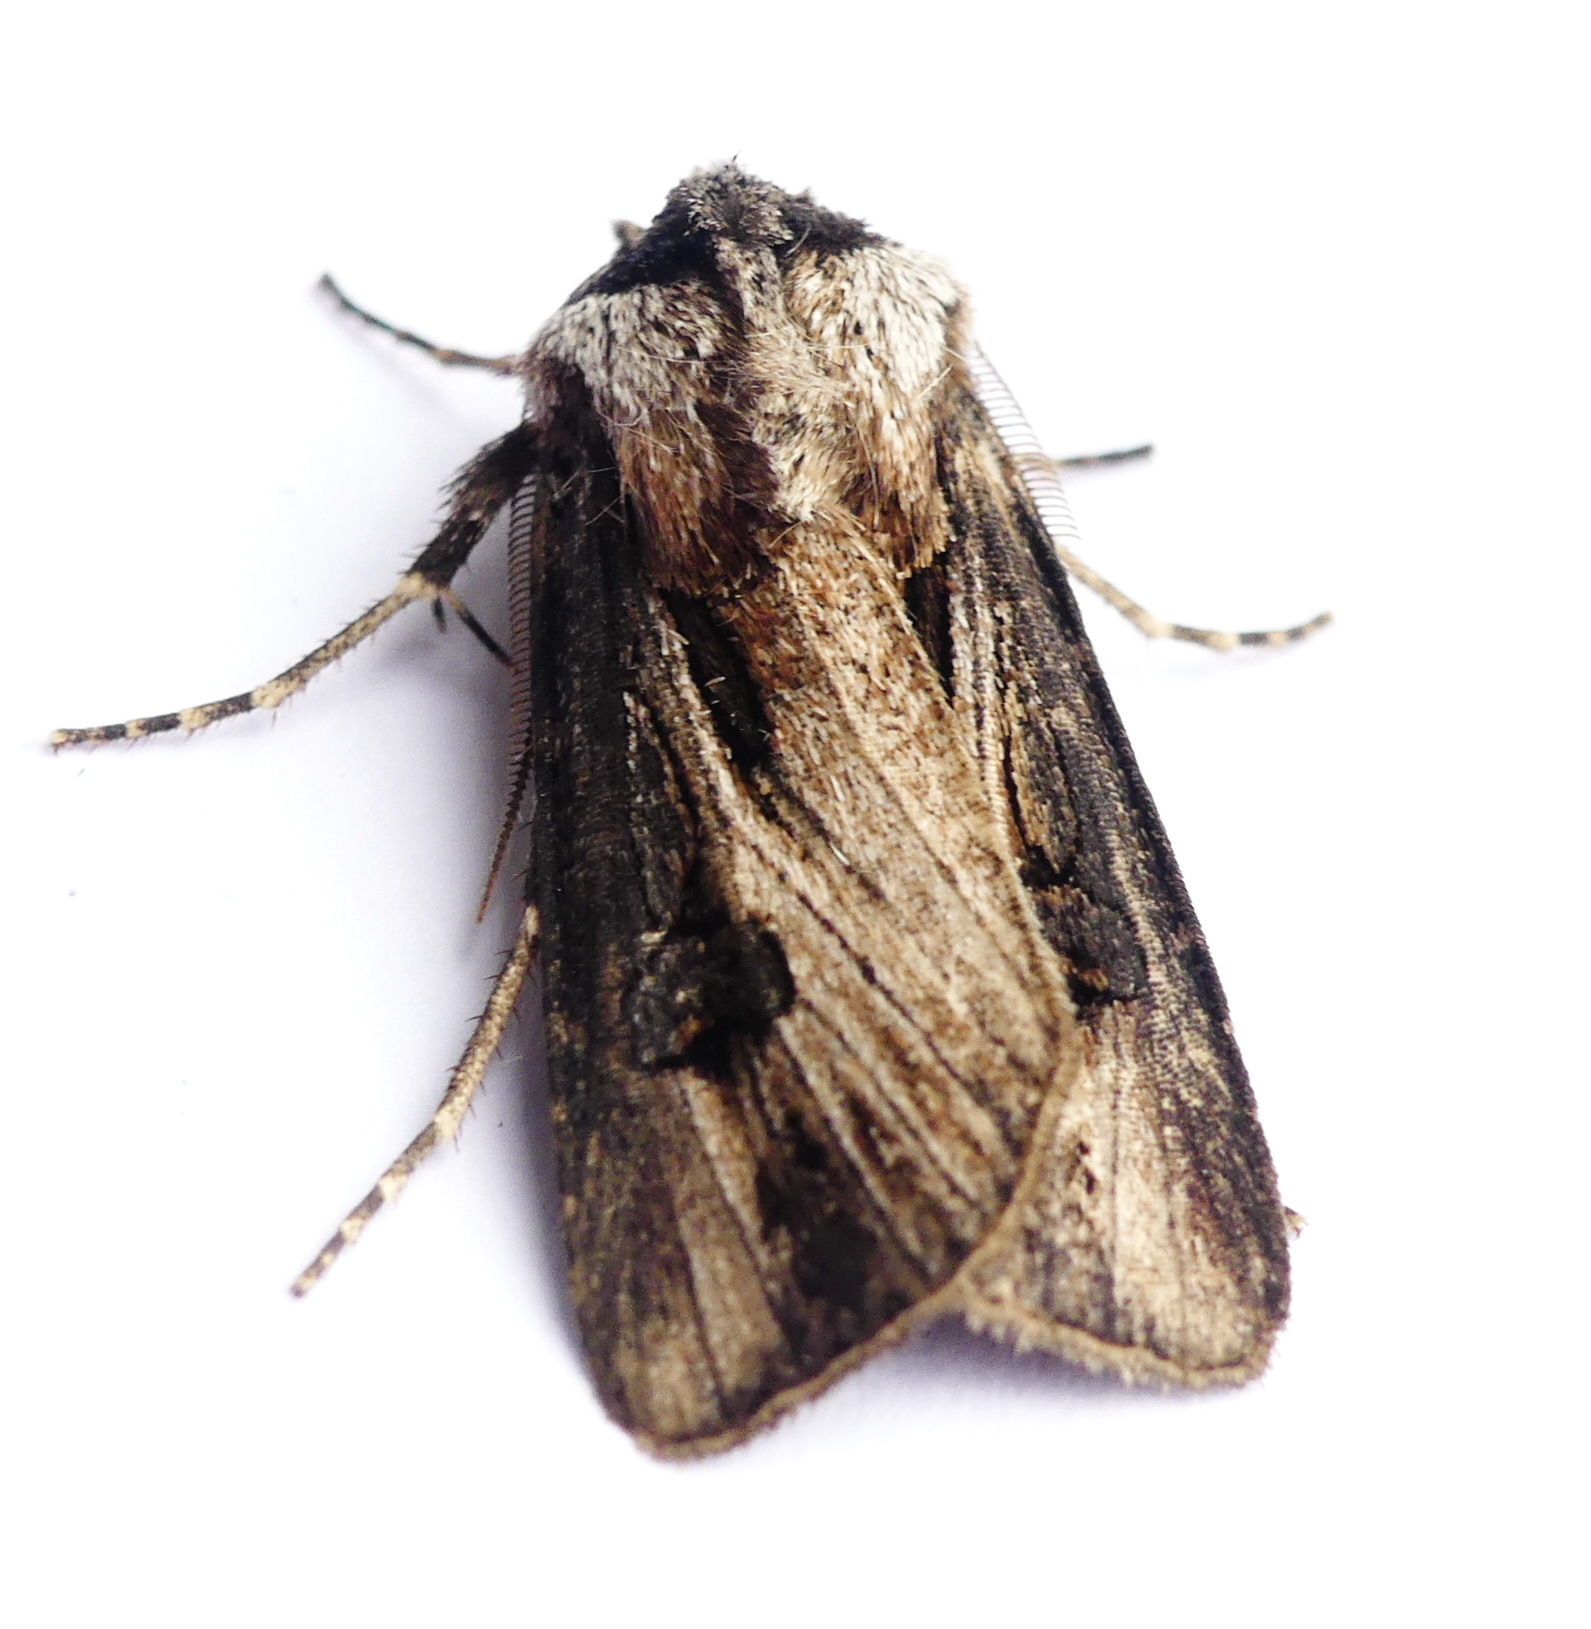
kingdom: Animalia
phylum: Arthropoda
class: Insecta
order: Lepidoptera
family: Noctuidae
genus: Agrotis
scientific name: Agrotis venerabilis
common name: Venerable dart
